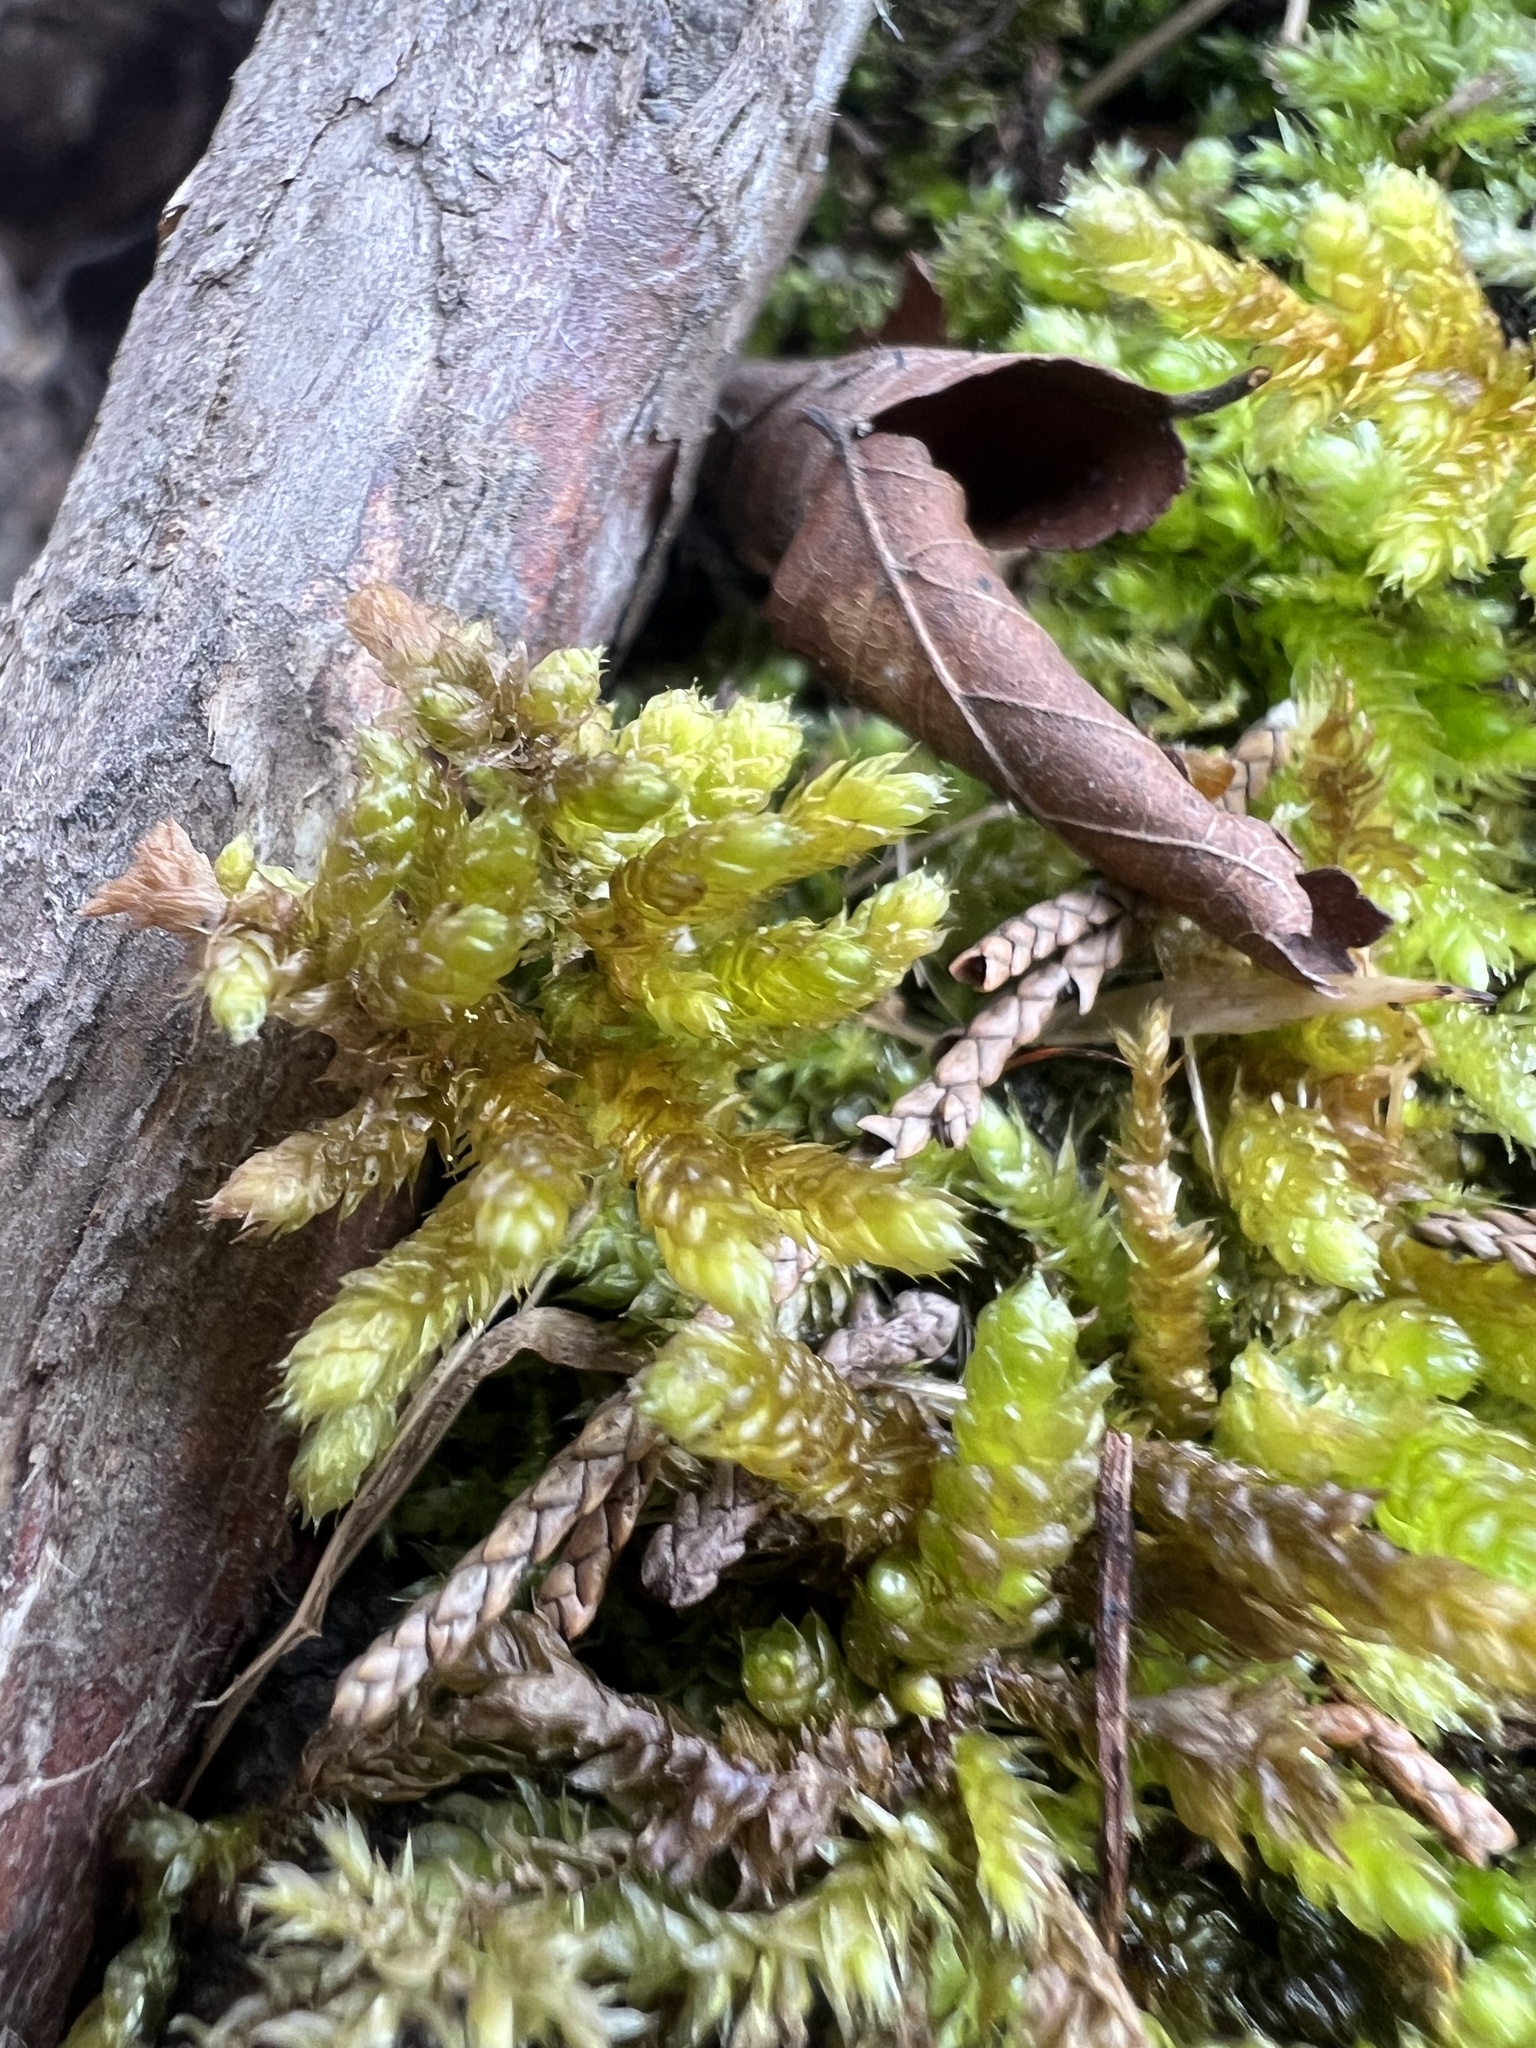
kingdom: Plantae
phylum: Bryophyta
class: Bryopsida
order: Hypnales
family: Brachytheciaceae
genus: Bryoandersonia
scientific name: Bryoandersonia illecebra
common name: Spoon-leaved moss
